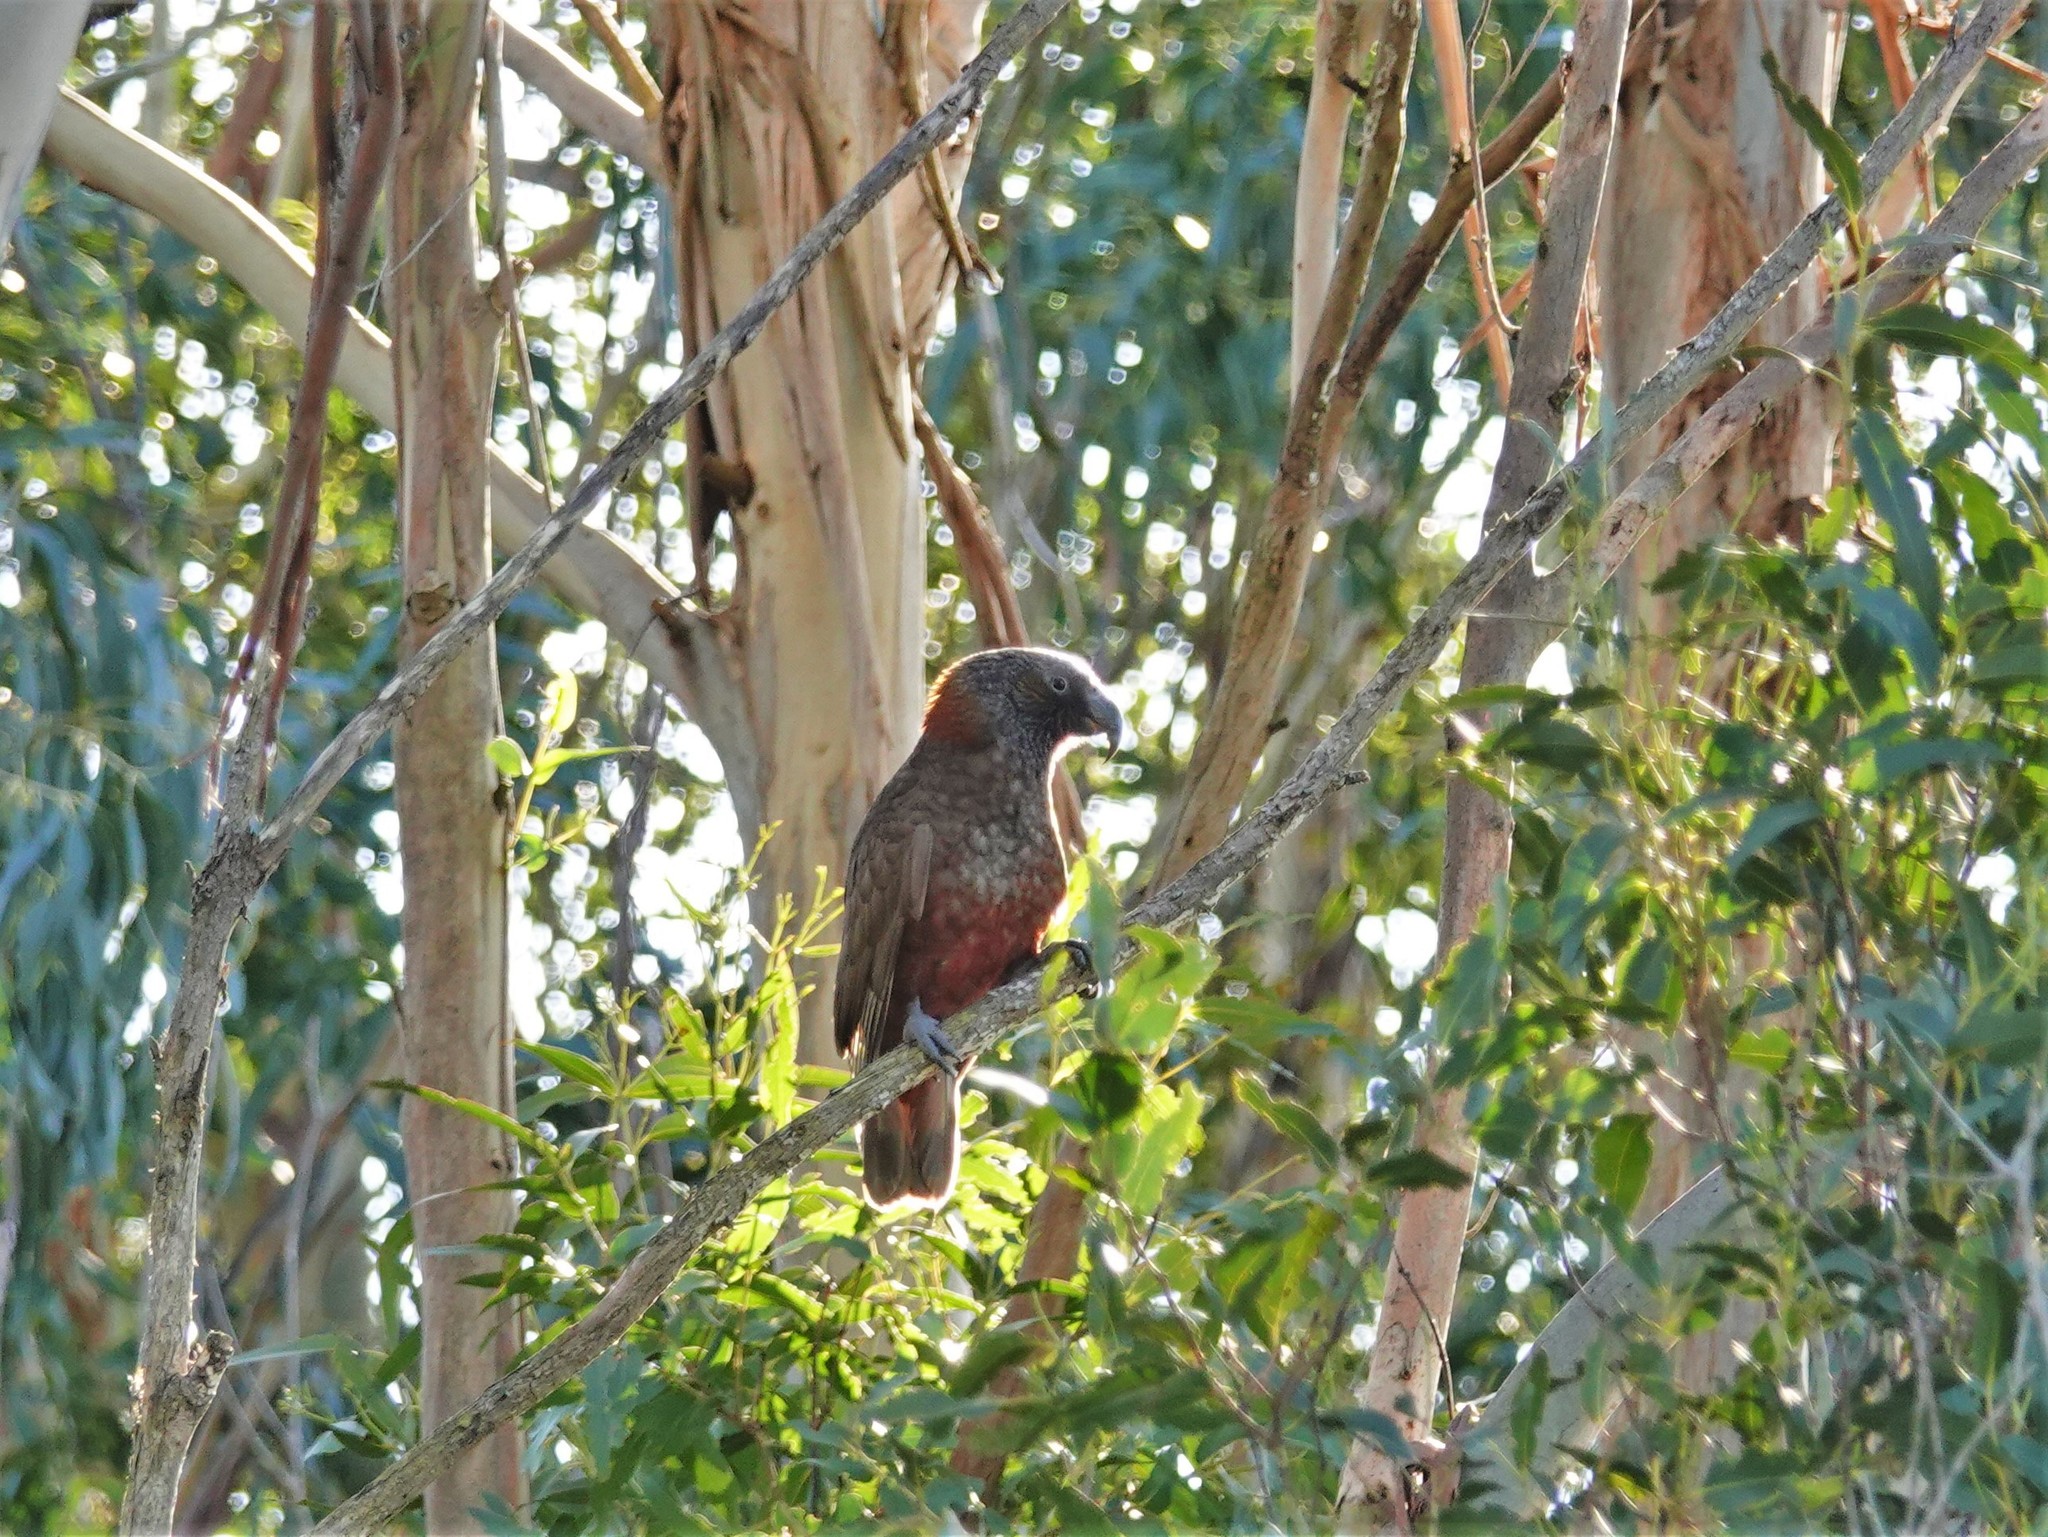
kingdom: Animalia
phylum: Chordata
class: Aves
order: Psittaciformes
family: Psittacidae
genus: Nestor
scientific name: Nestor meridionalis
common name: New zealand kaka
